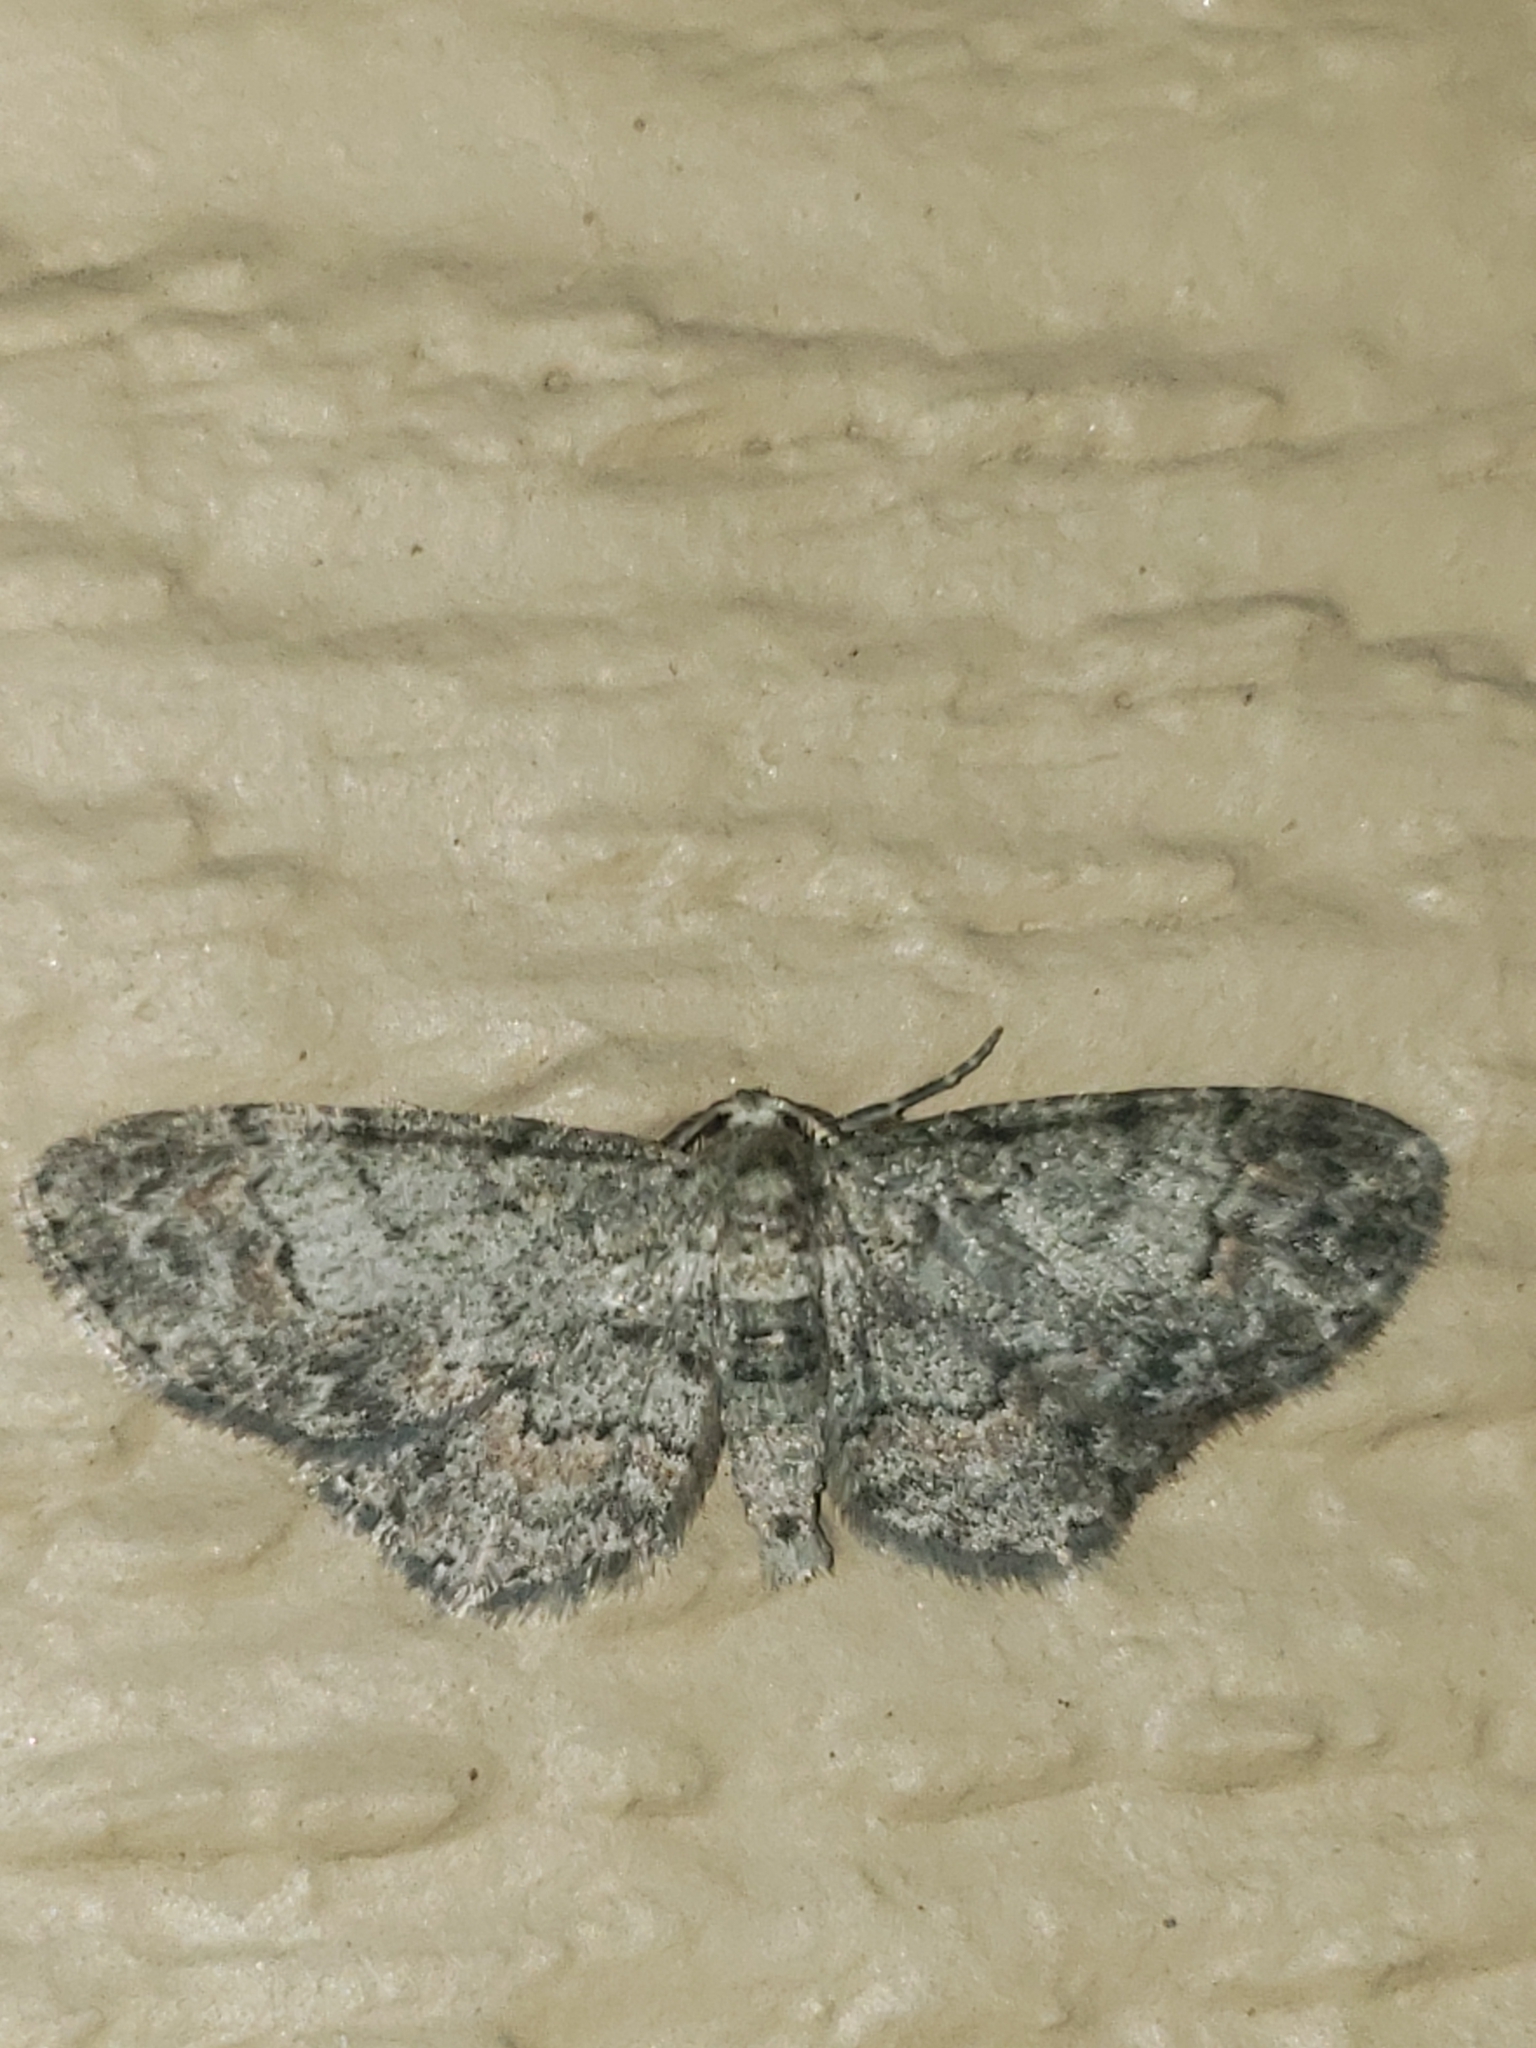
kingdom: Animalia
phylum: Arthropoda
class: Insecta
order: Lepidoptera
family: Geometridae
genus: Glenoides
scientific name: Glenoides texanaria
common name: Texas gray
